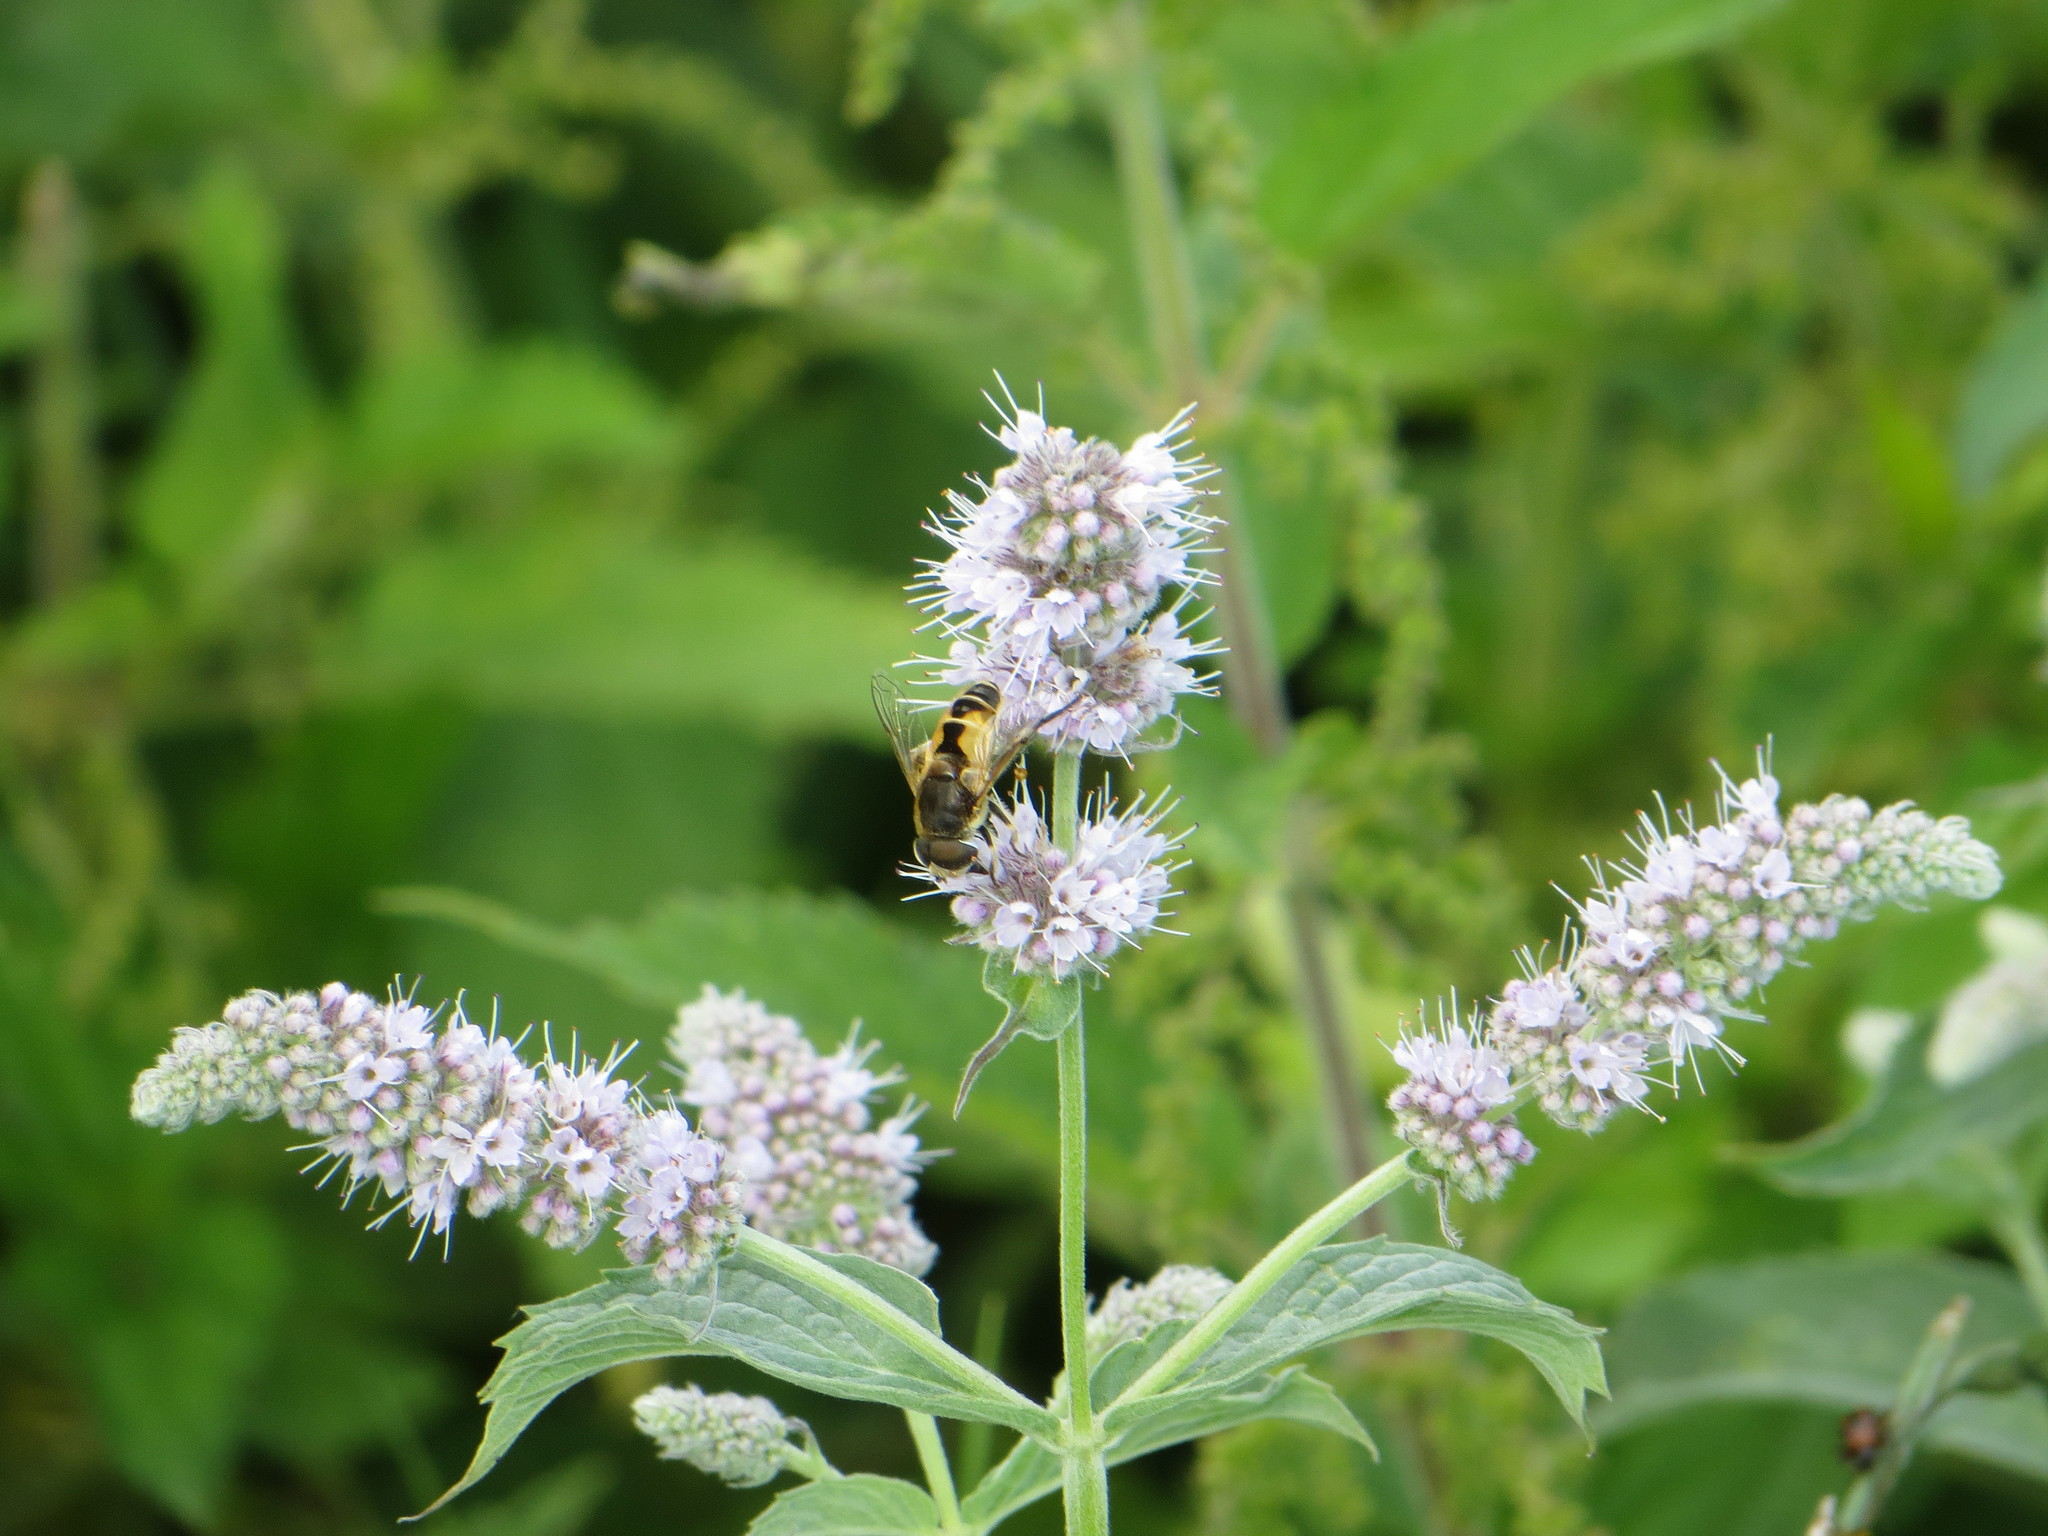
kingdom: Animalia
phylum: Arthropoda
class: Insecta
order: Diptera
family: Syrphidae
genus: Eristalis
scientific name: Eristalis arbustorum
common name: Hover fly
